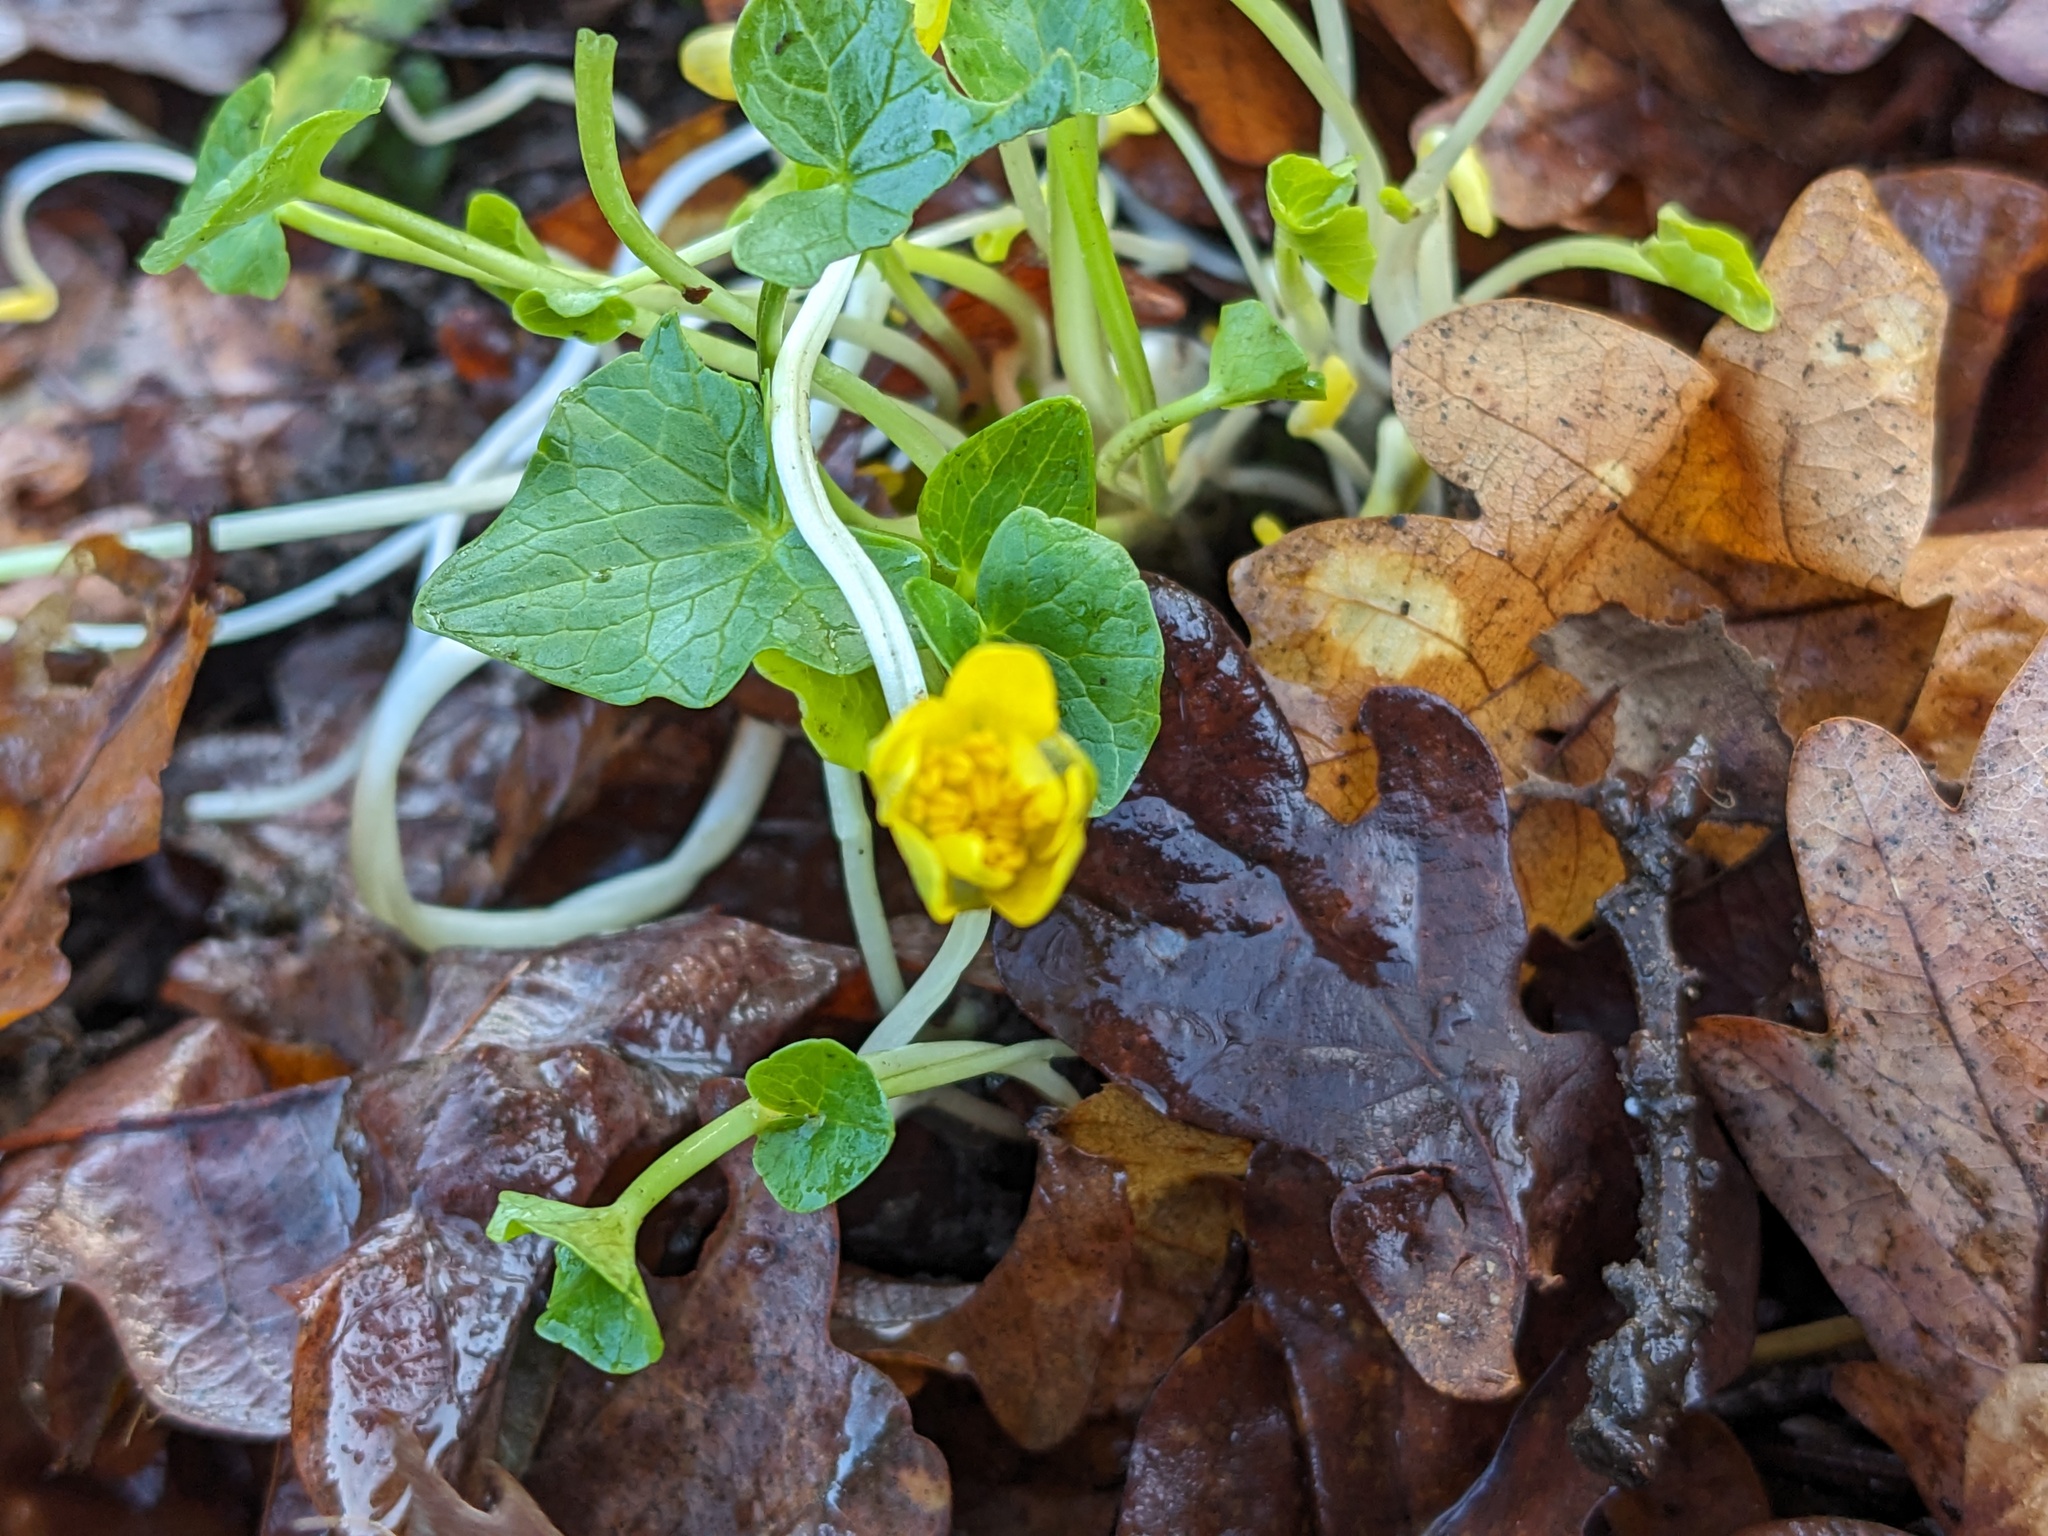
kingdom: Plantae
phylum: Tracheophyta
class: Magnoliopsida
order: Ranunculales
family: Ranunculaceae
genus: Ficaria
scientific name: Ficaria verna
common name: Lesser celandine
